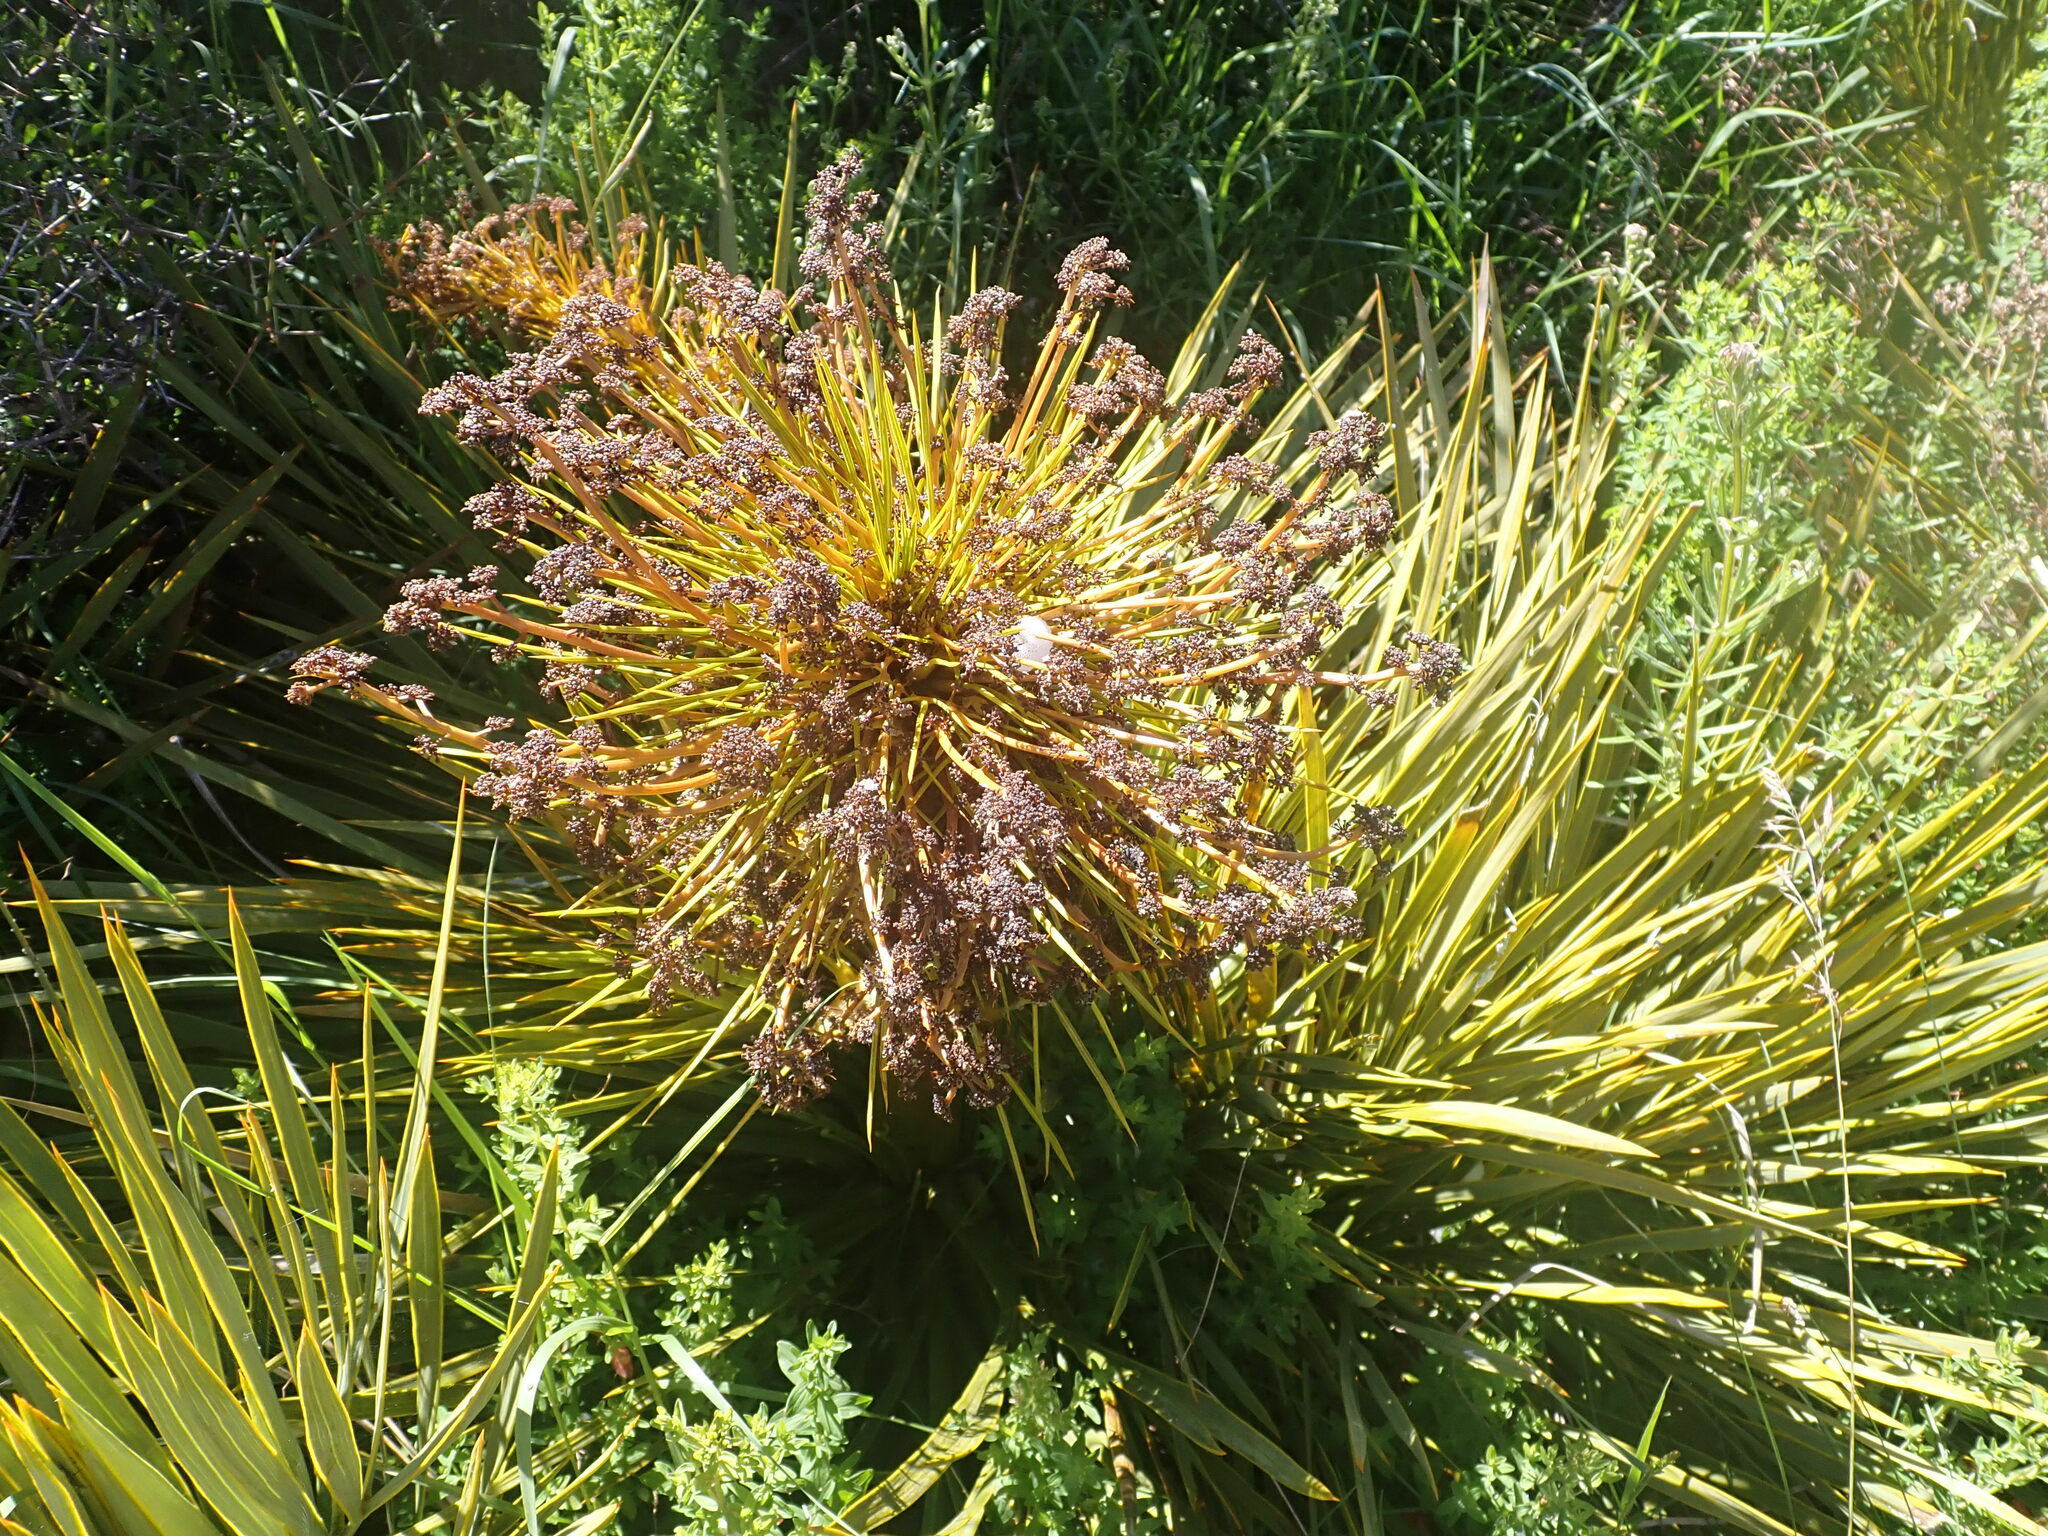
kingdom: Plantae
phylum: Tracheophyta
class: Magnoliopsida
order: Apiales
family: Apiaceae
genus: Aciphylla
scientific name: Aciphylla aurea
